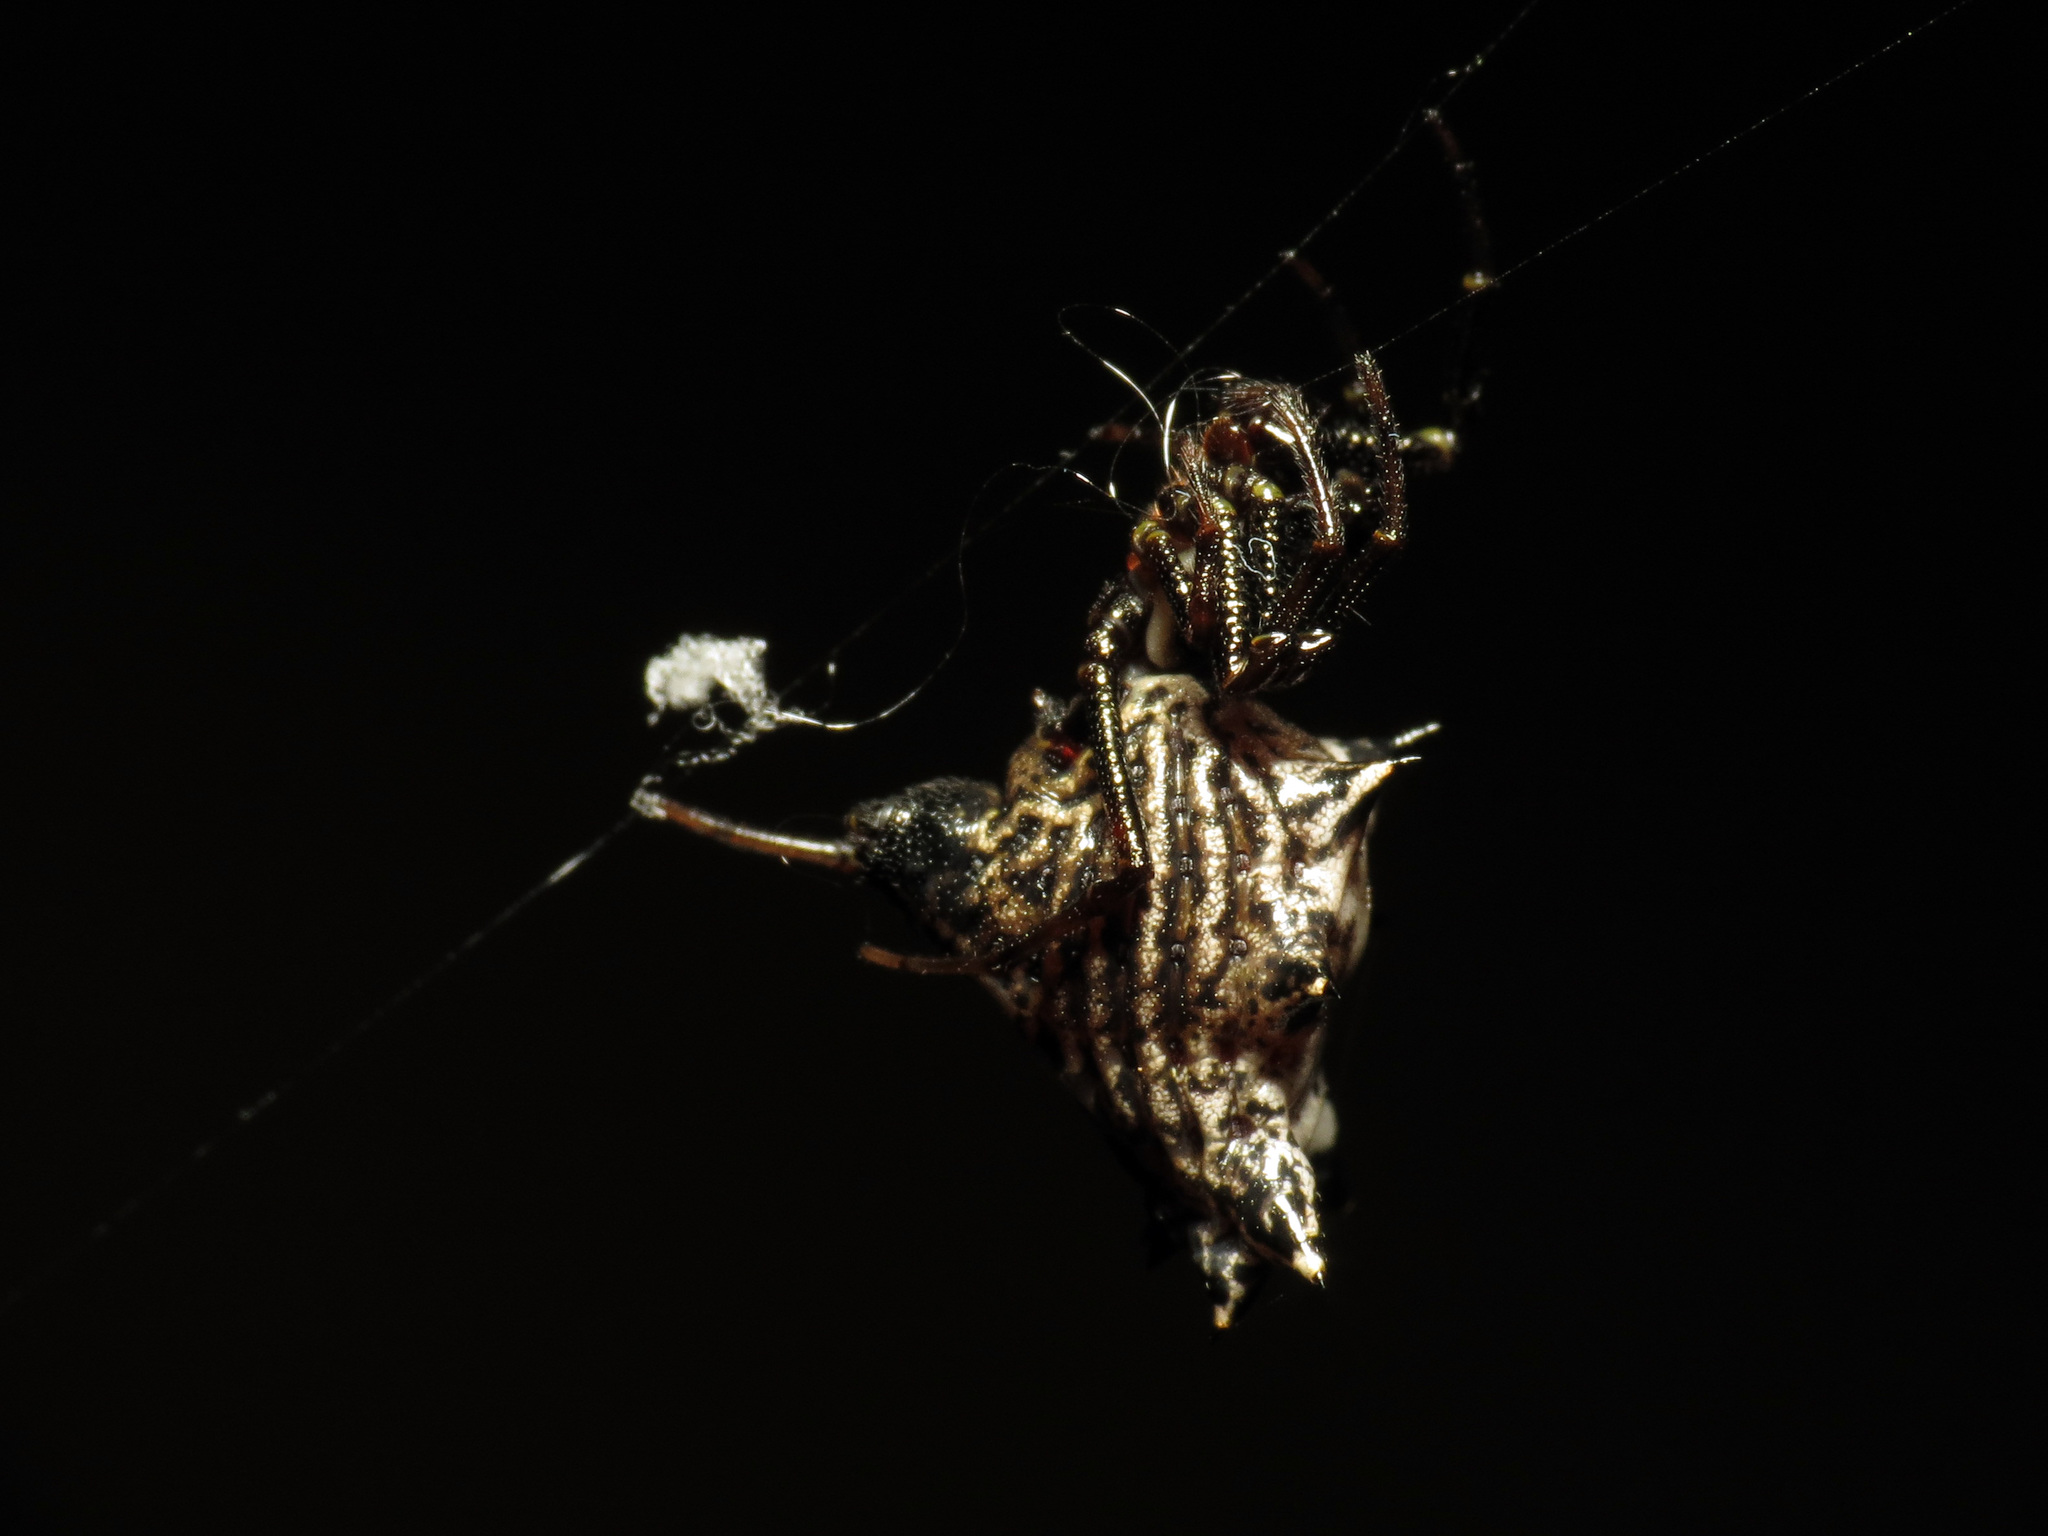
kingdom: Animalia
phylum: Arthropoda
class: Arachnida
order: Araneae
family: Araneidae
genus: Micrathena
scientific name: Micrathena gracilis
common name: Orb weavers
